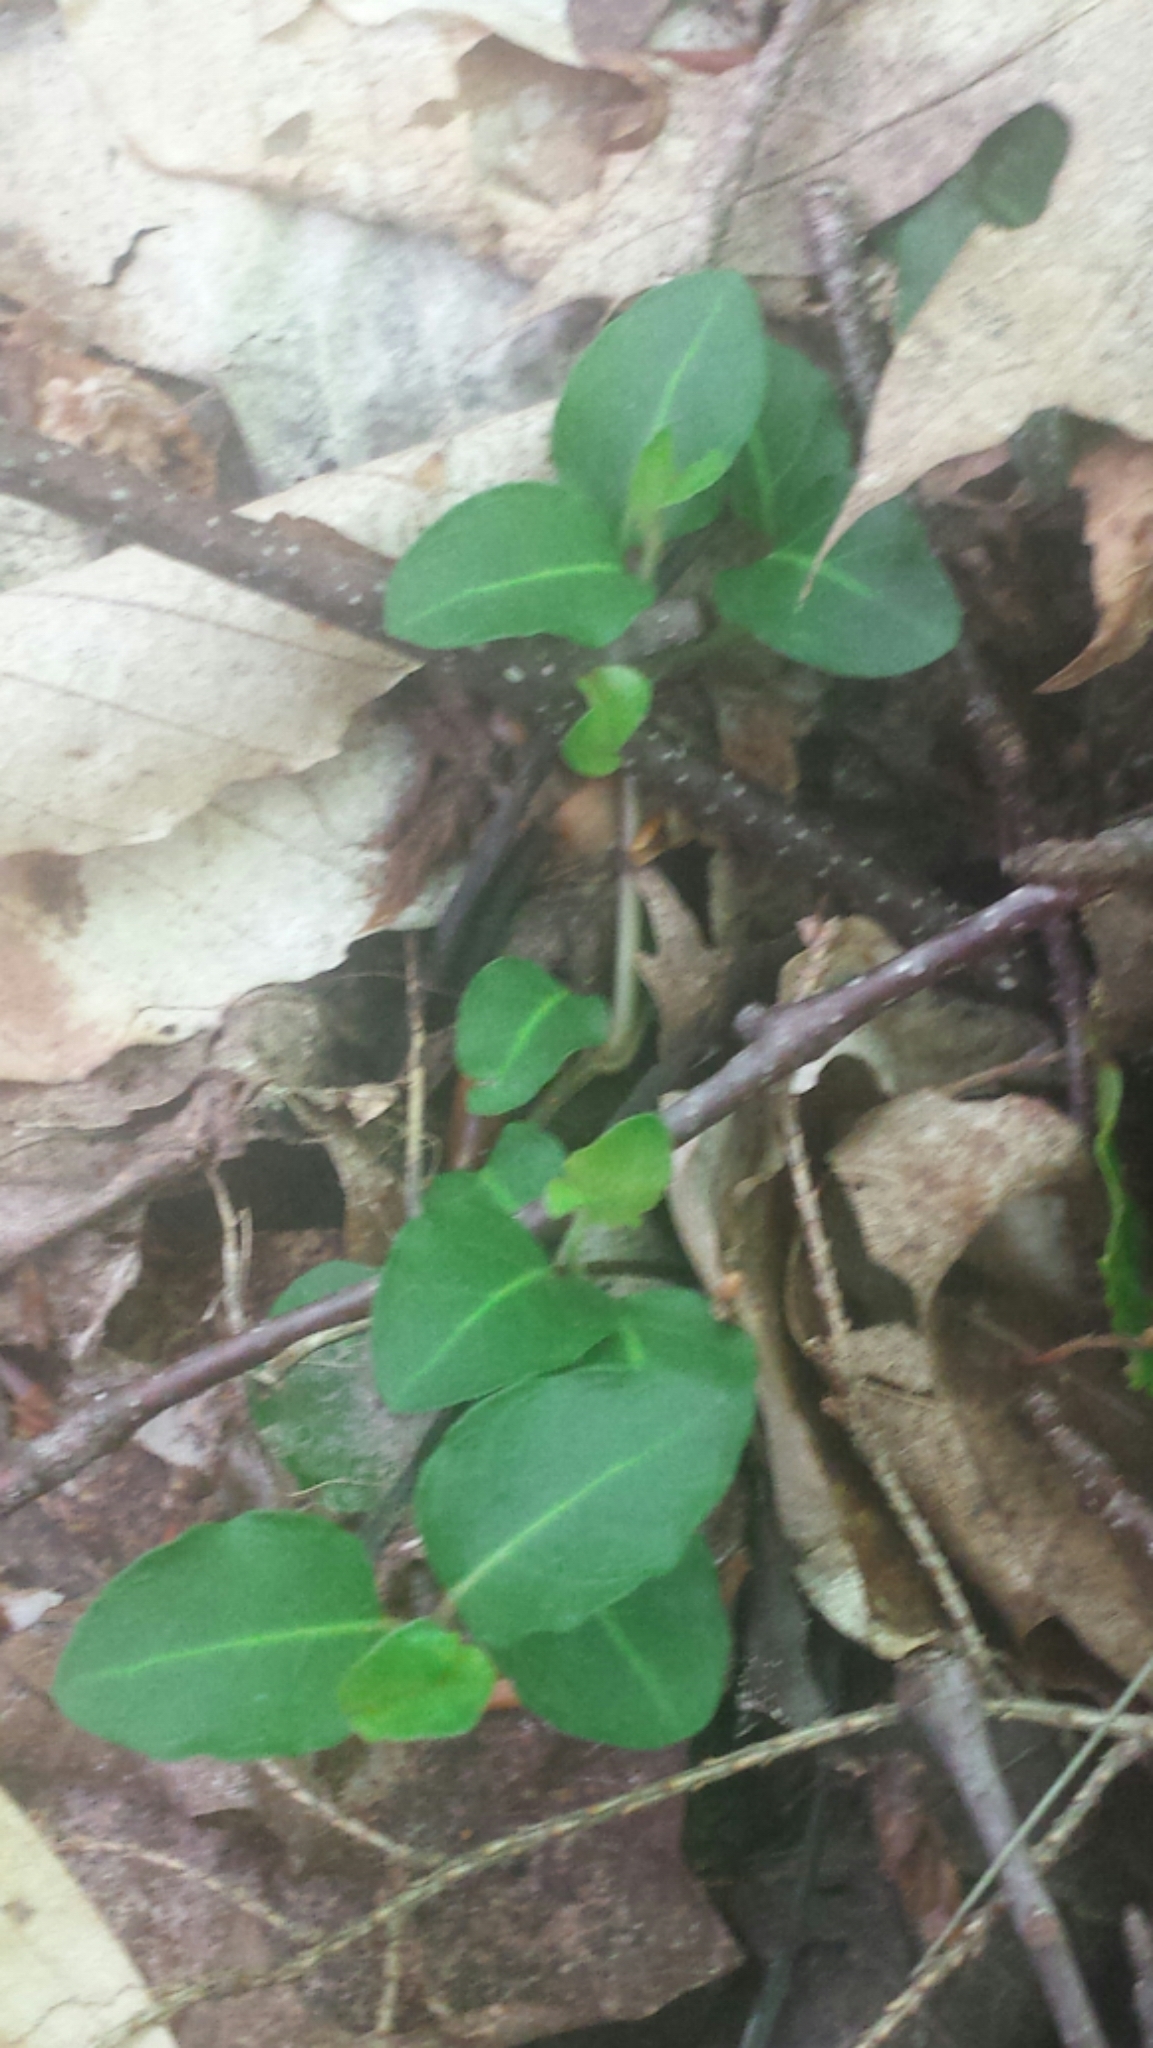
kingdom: Plantae
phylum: Tracheophyta
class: Magnoliopsida
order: Gentianales
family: Rubiaceae
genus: Mitchella
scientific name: Mitchella repens
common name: Partridge-berry
